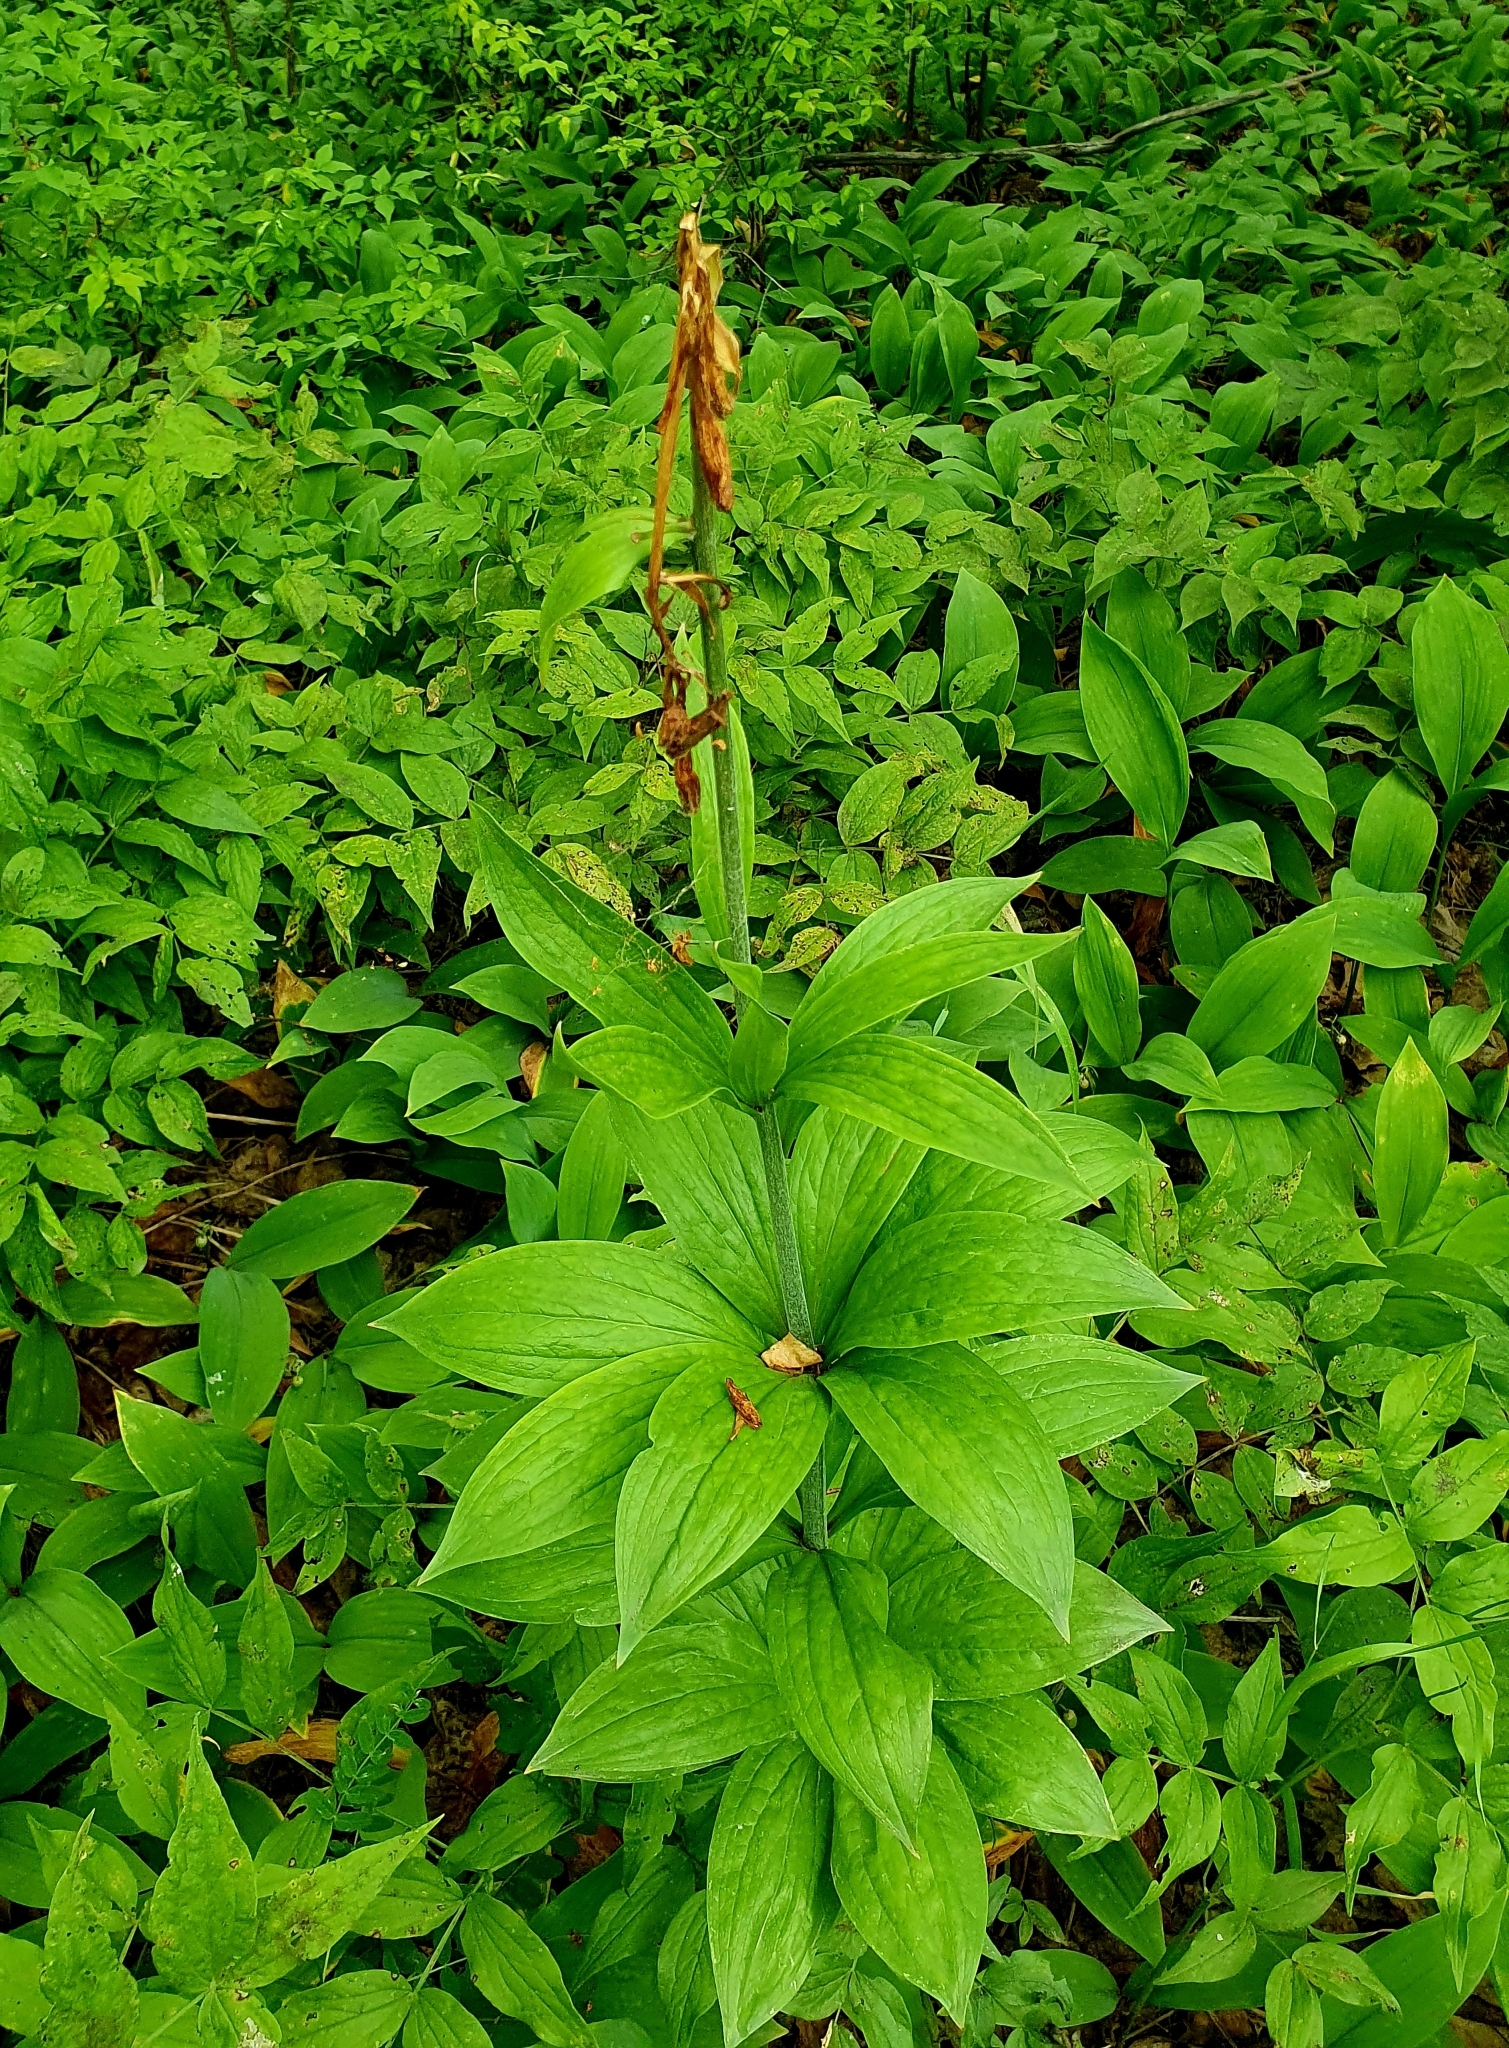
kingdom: Plantae
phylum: Tracheophyta
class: Liliopsida
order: Liliales
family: Liliaceae
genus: Lilium
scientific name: Lilium martagon
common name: Martagon lily
